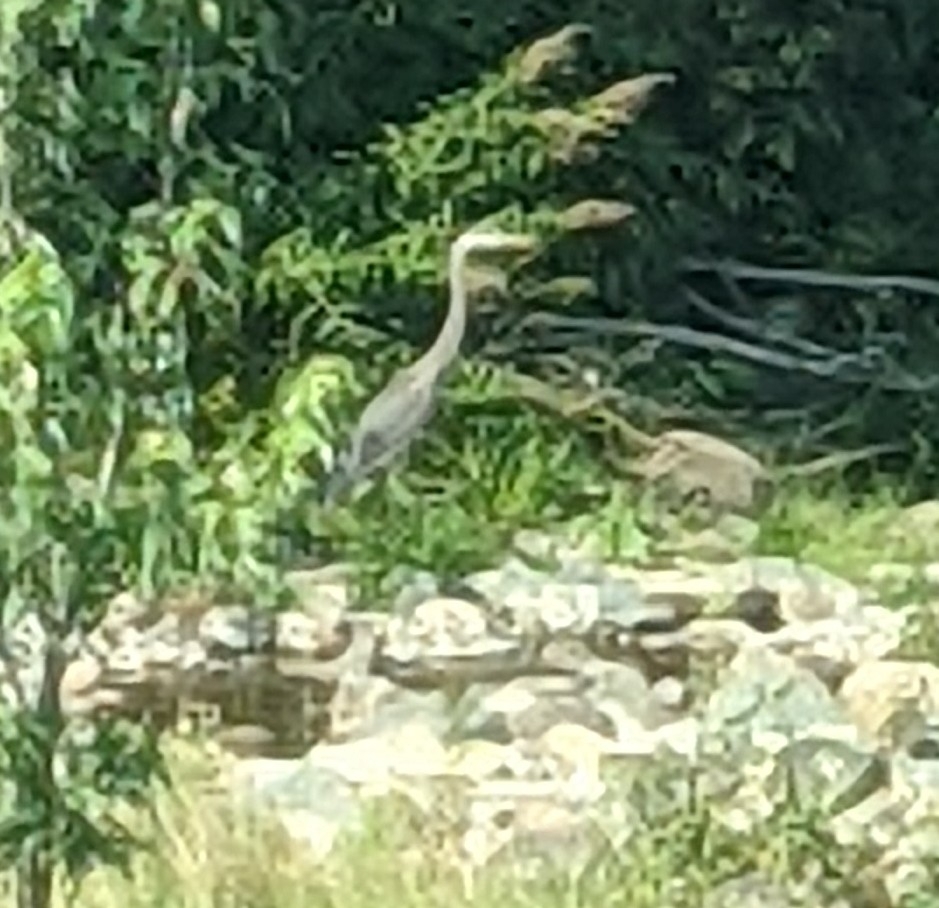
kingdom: Animalia
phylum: Chordata
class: Aves
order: Pelecaniformes
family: Ardeidae
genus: Ardea
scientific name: Ardea herodias
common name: Great blue heron
